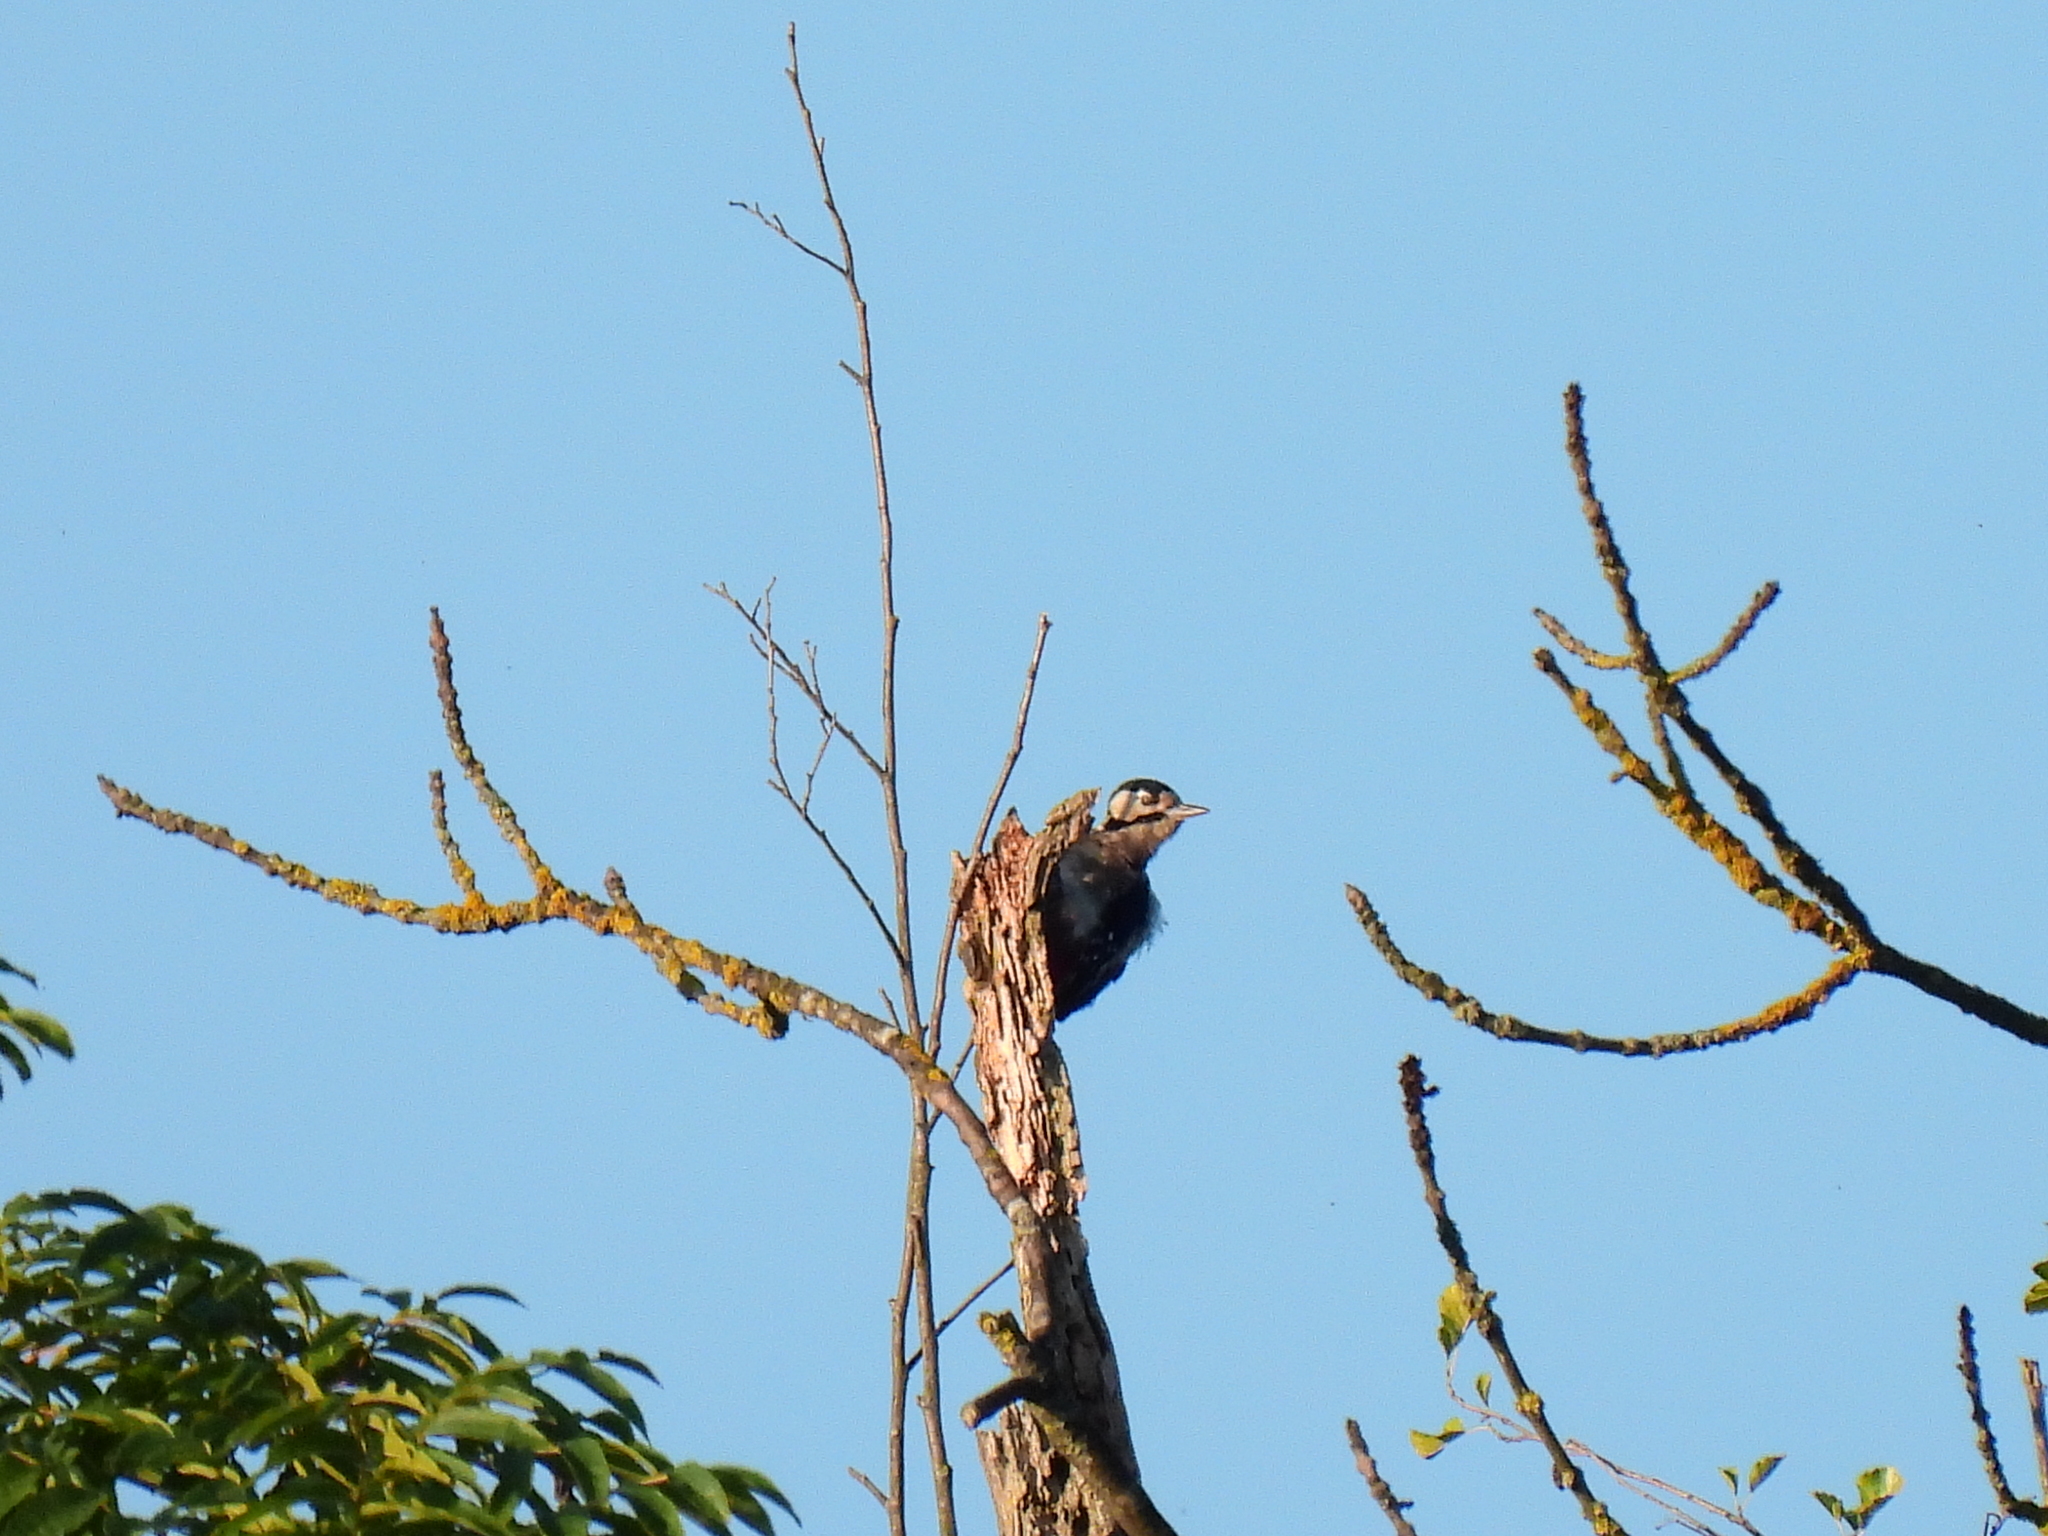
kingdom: Animalia
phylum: Chordata
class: Aves
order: Piciformes
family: Picidae
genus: Dendrocopos
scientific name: Dendrocopos major
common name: Great spotted woodpecker
